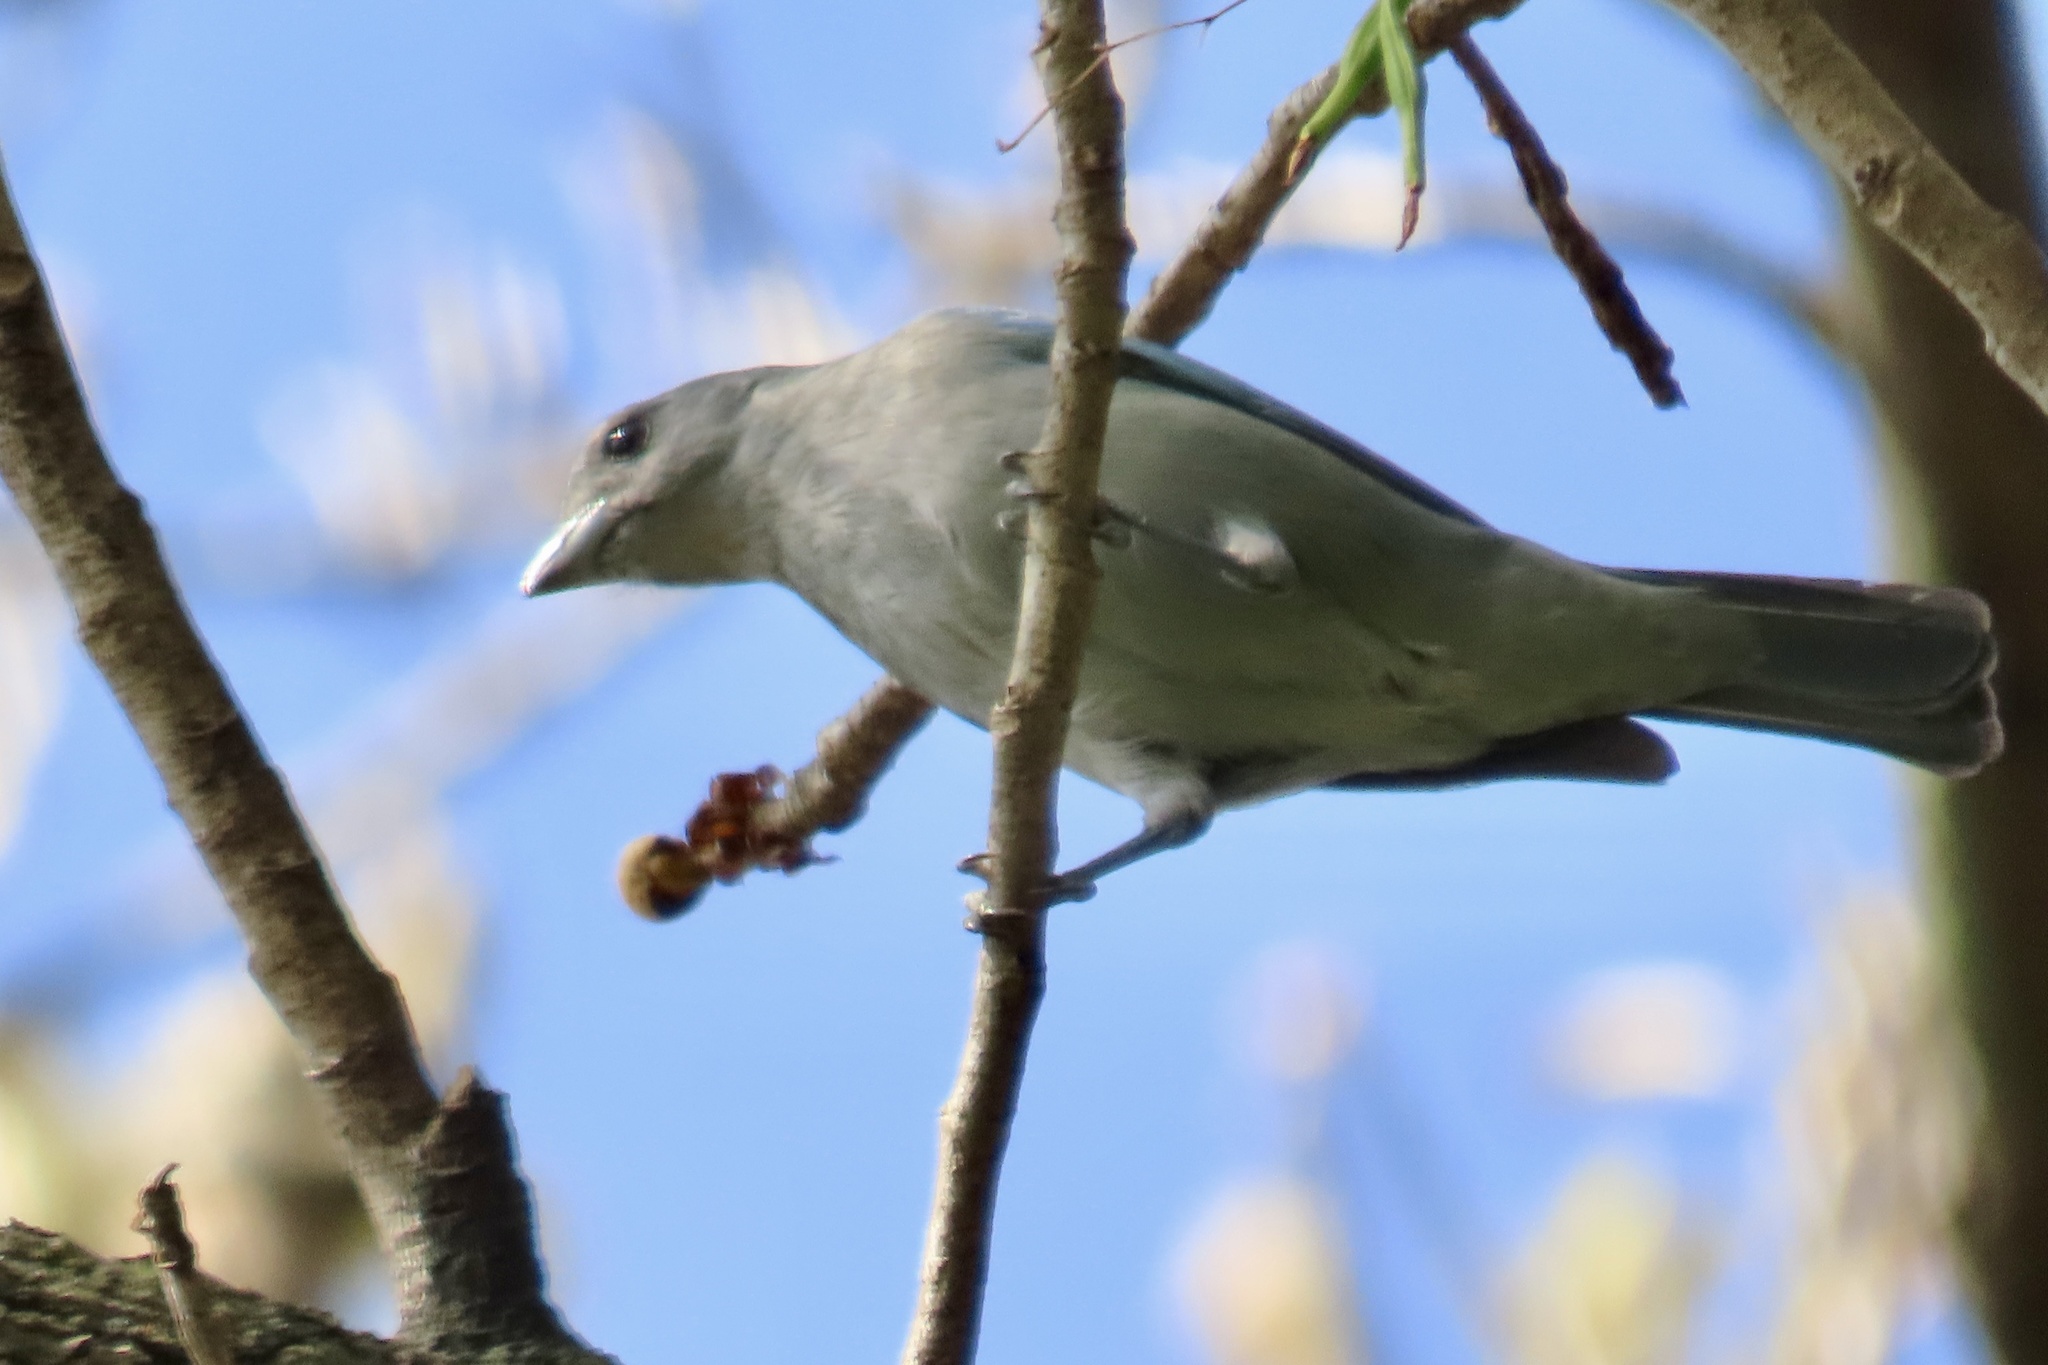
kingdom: Animalia
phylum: Chordata
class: Aves
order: Passeriformes
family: Thraupidae
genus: Thraupis
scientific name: Thraupis episcopus
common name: Blue-grey tanager
